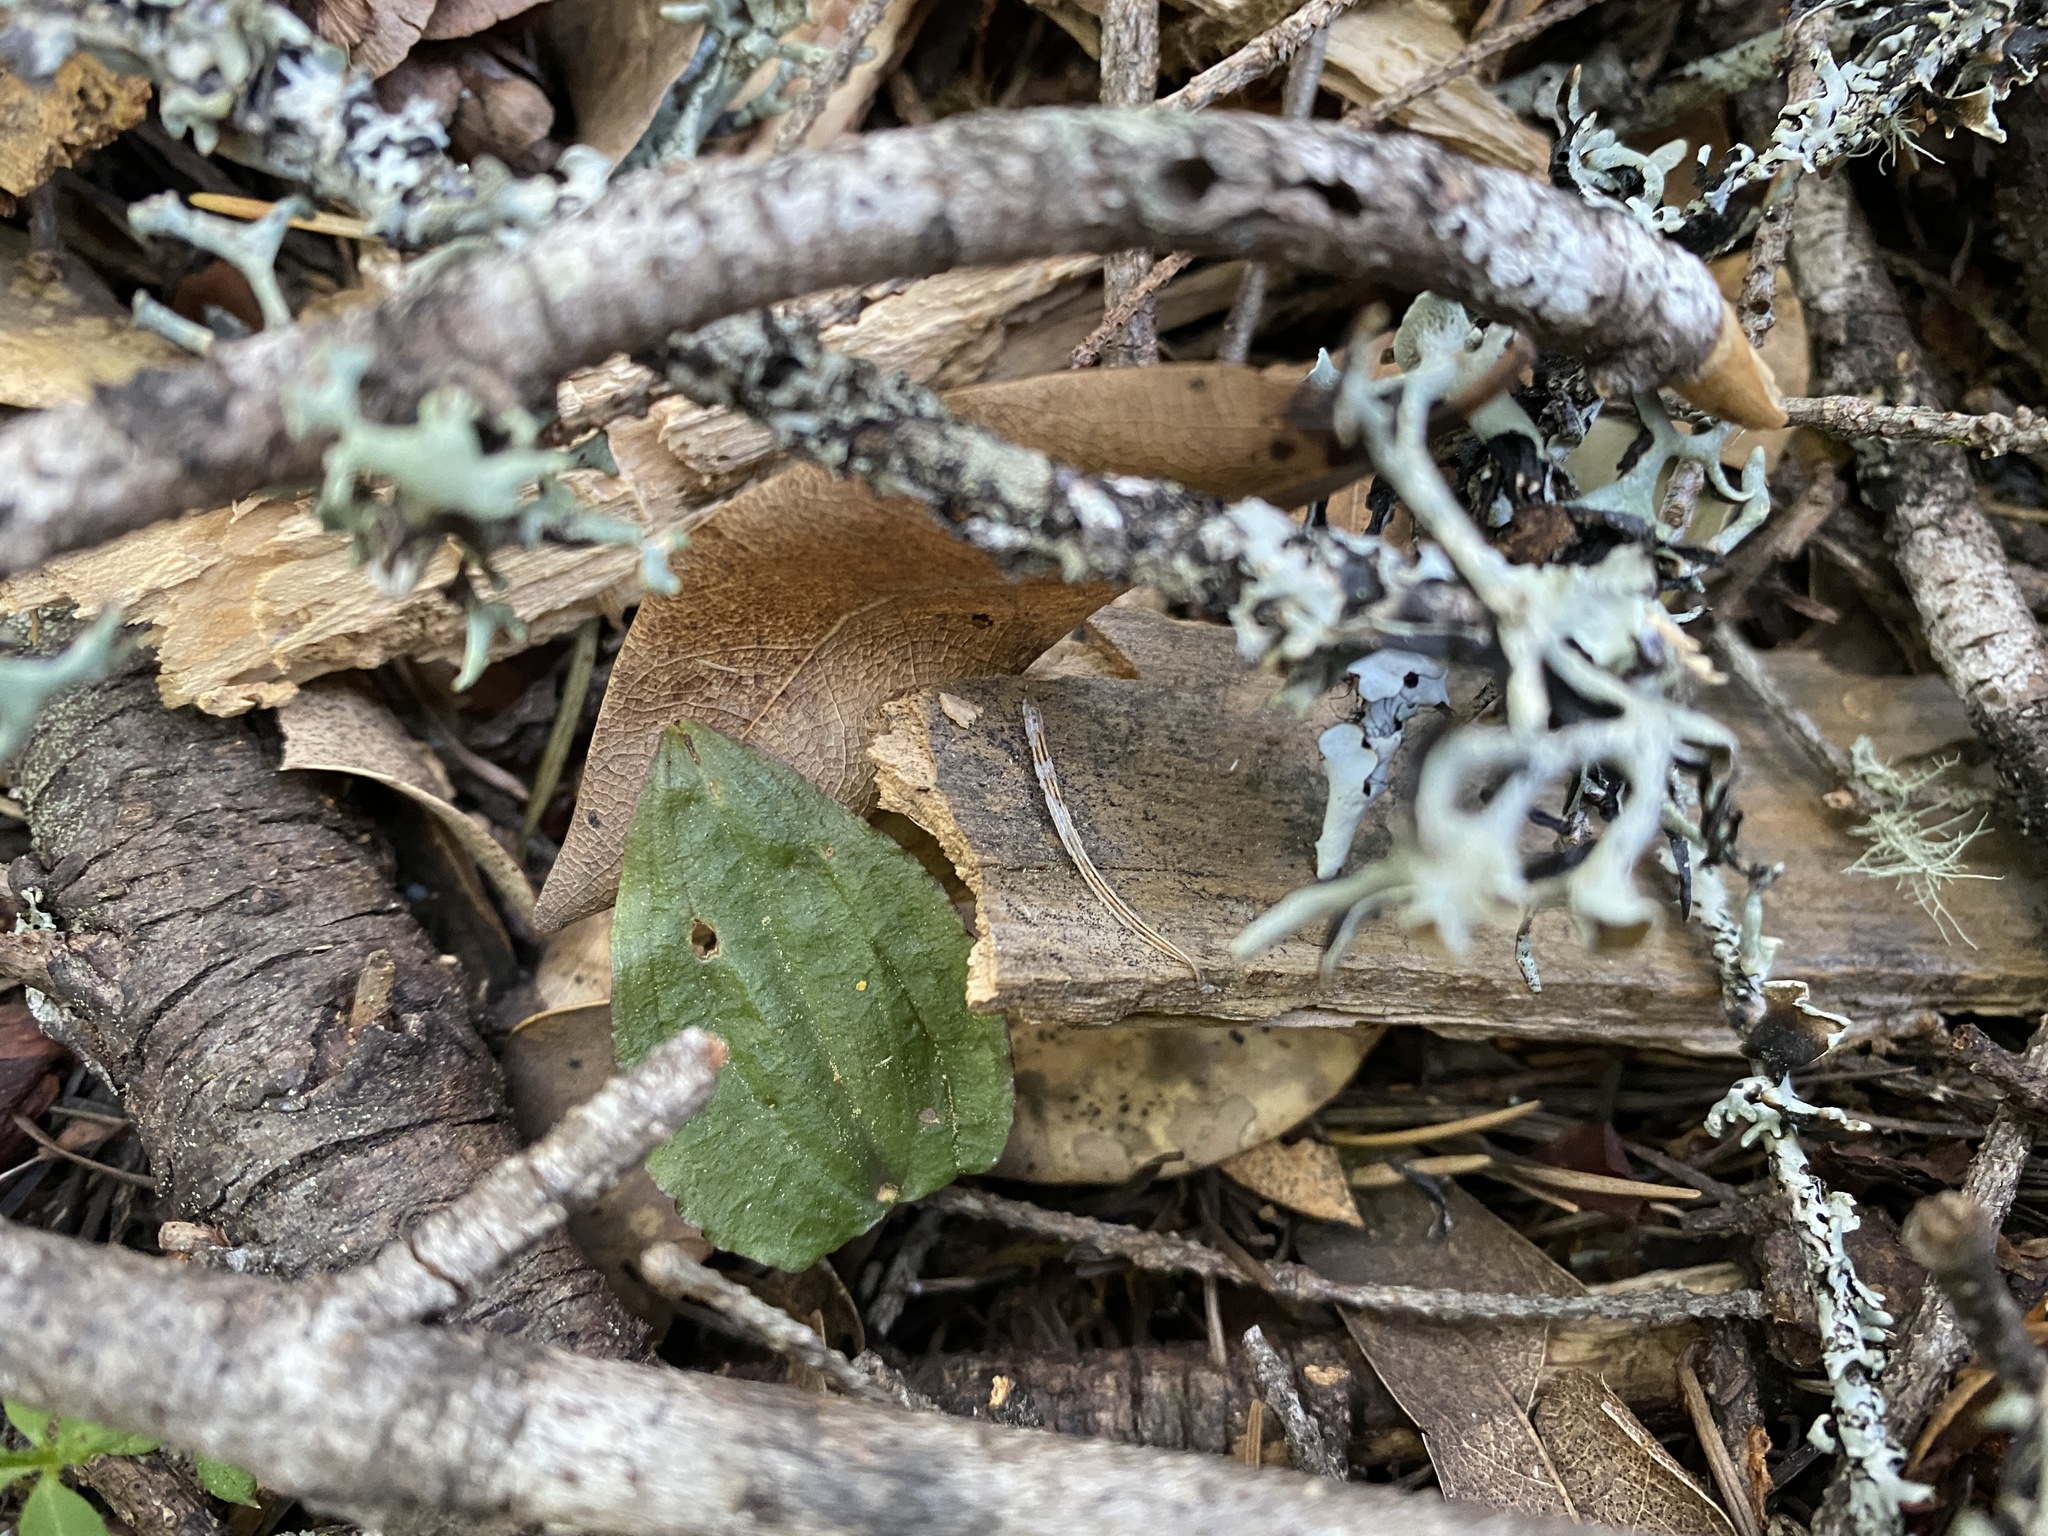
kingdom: Plantae
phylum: Tracheophyta
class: Liliopsida
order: Asparagales
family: Orchidaceae
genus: Calypso
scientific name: Calypso bulbosa
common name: Calypso
